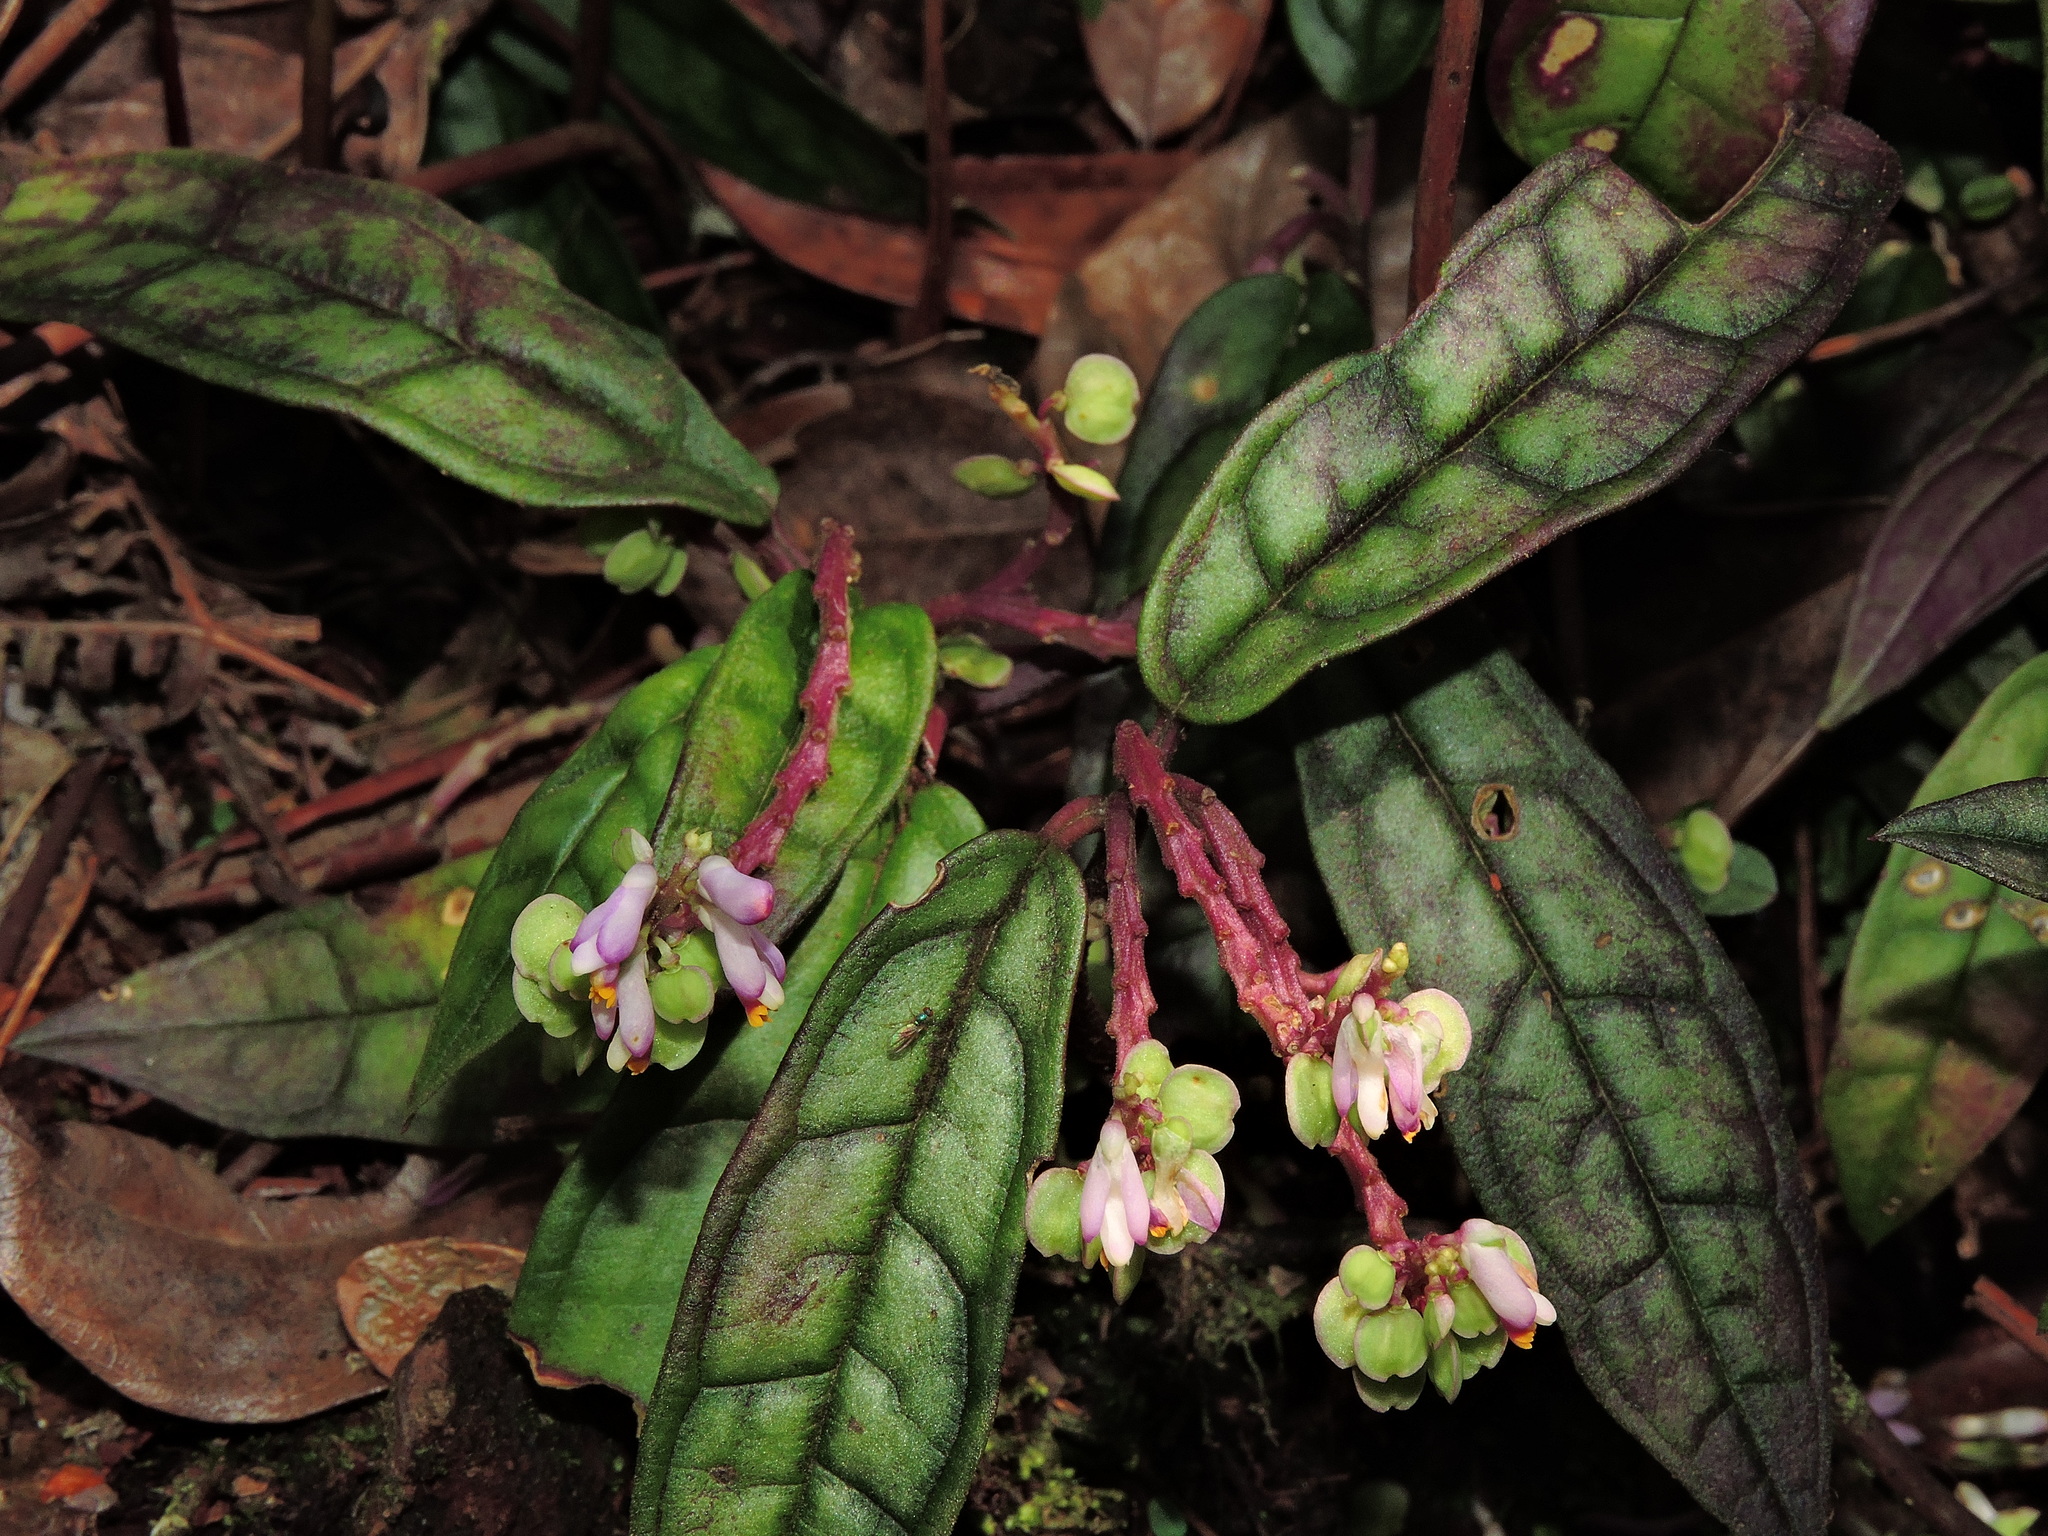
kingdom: Plantae
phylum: Tracheophyta
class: Magnoliopsida
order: Fabales
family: Polygalaceae
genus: Polygala
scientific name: Polygala arcuata
